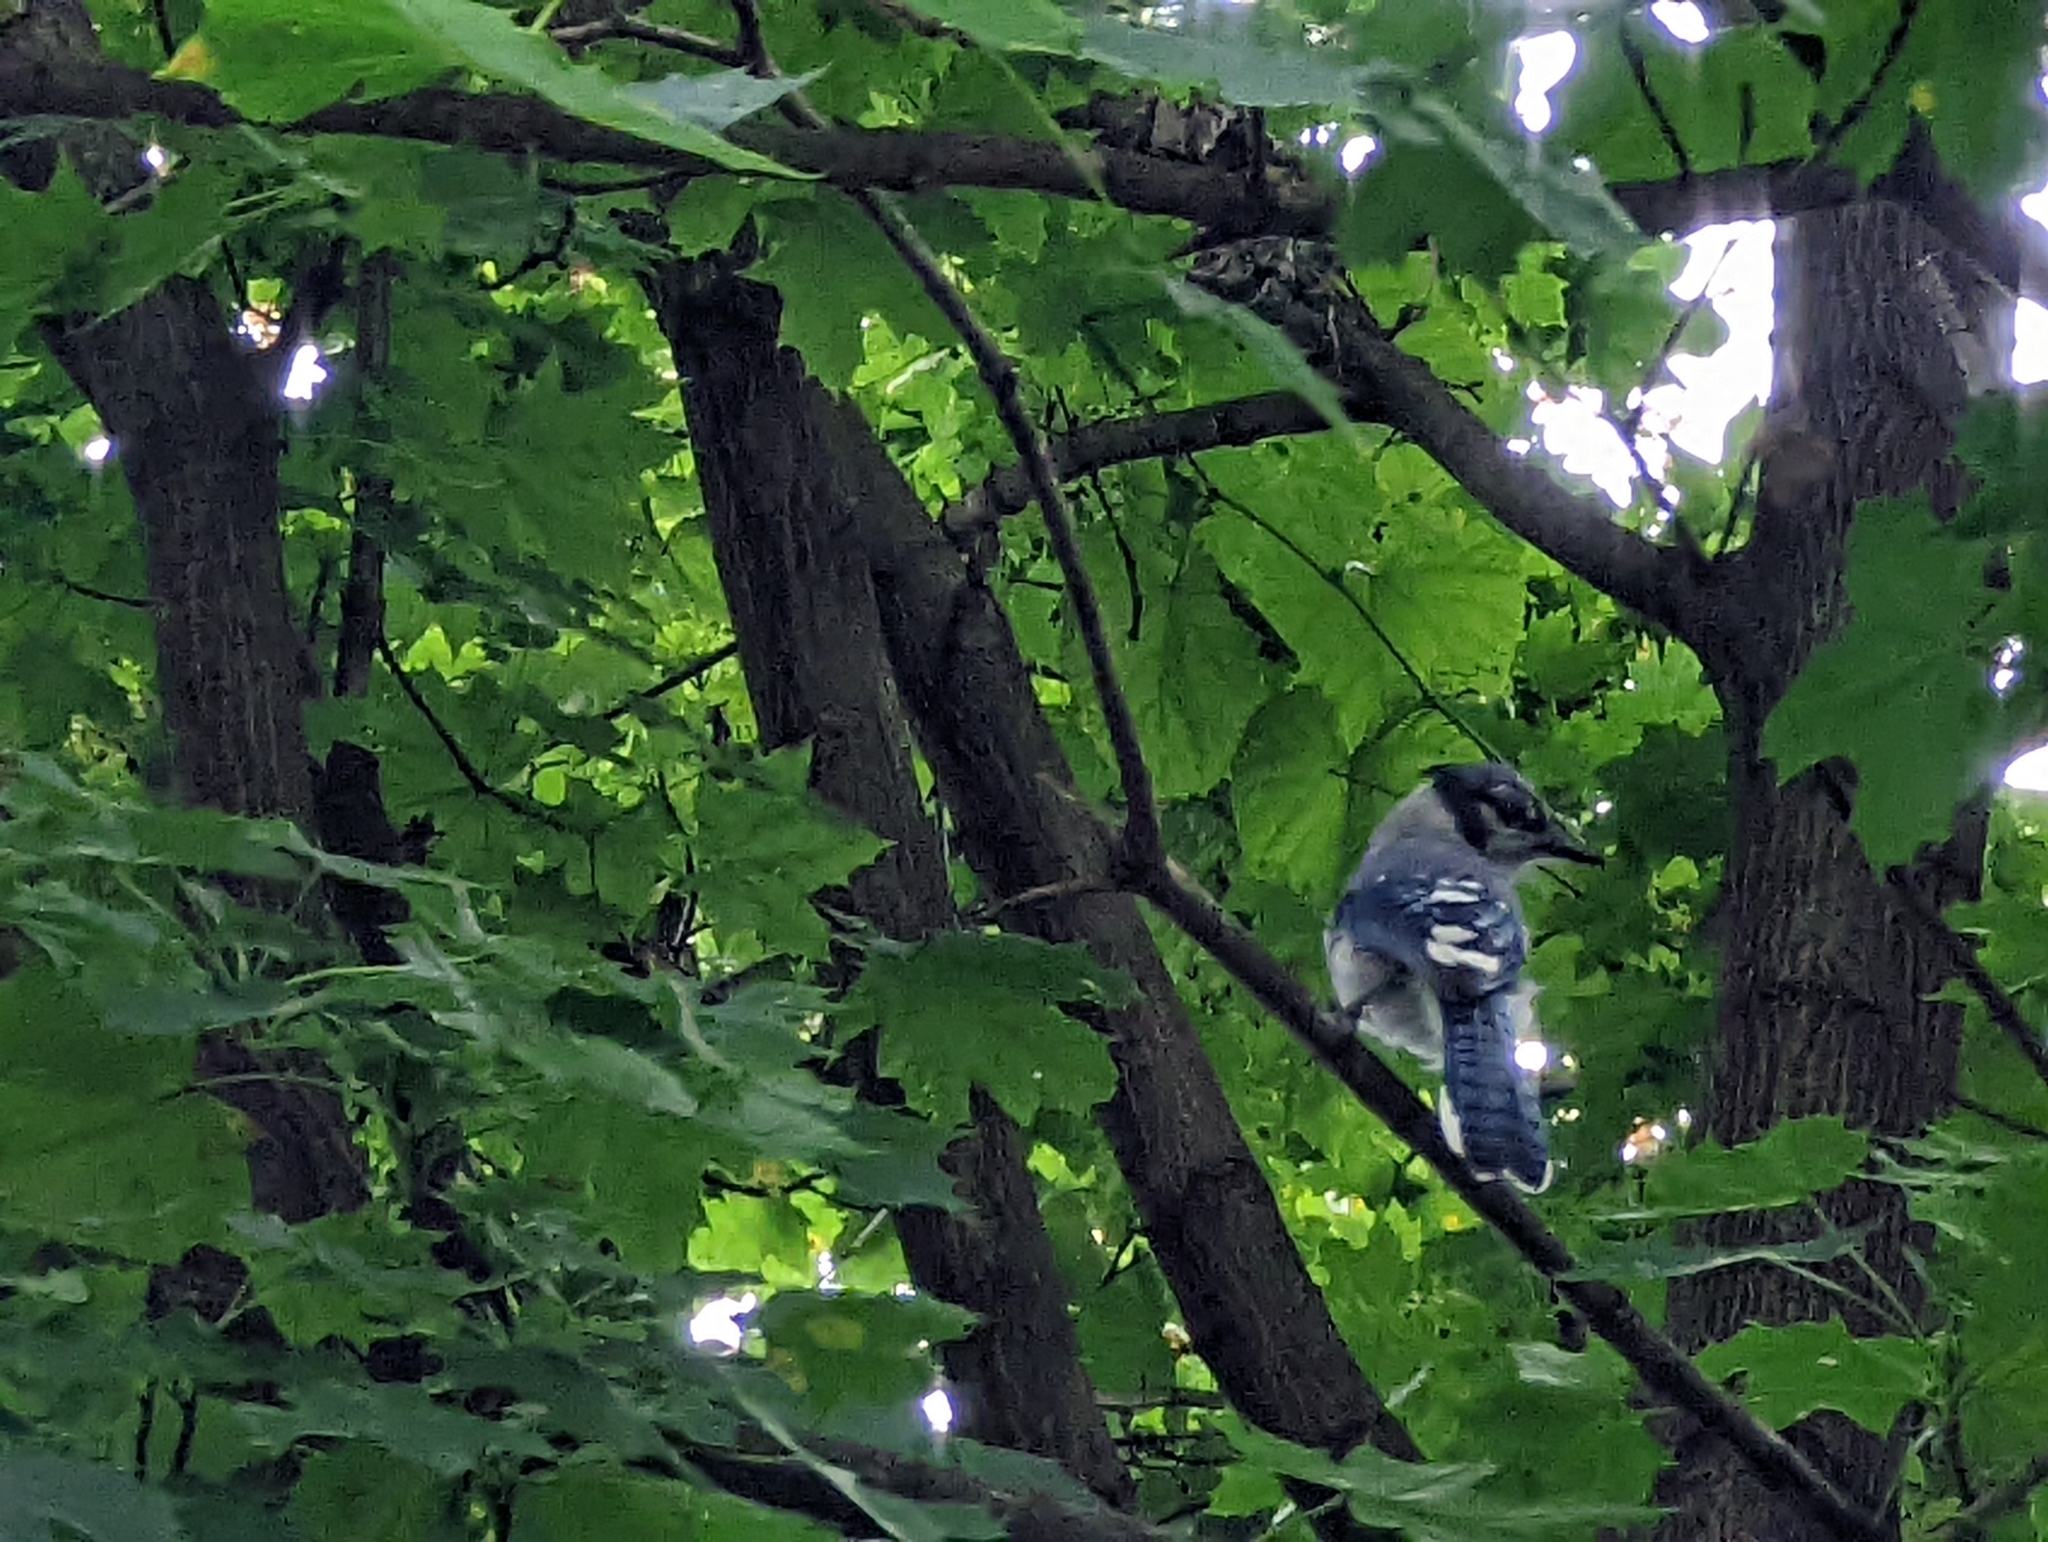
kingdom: Animalia
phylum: Chordata
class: Aves
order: Passeriformes
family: Corvidae
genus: Cyanocitta
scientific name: Cyanocitta cristata
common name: Blue jay
